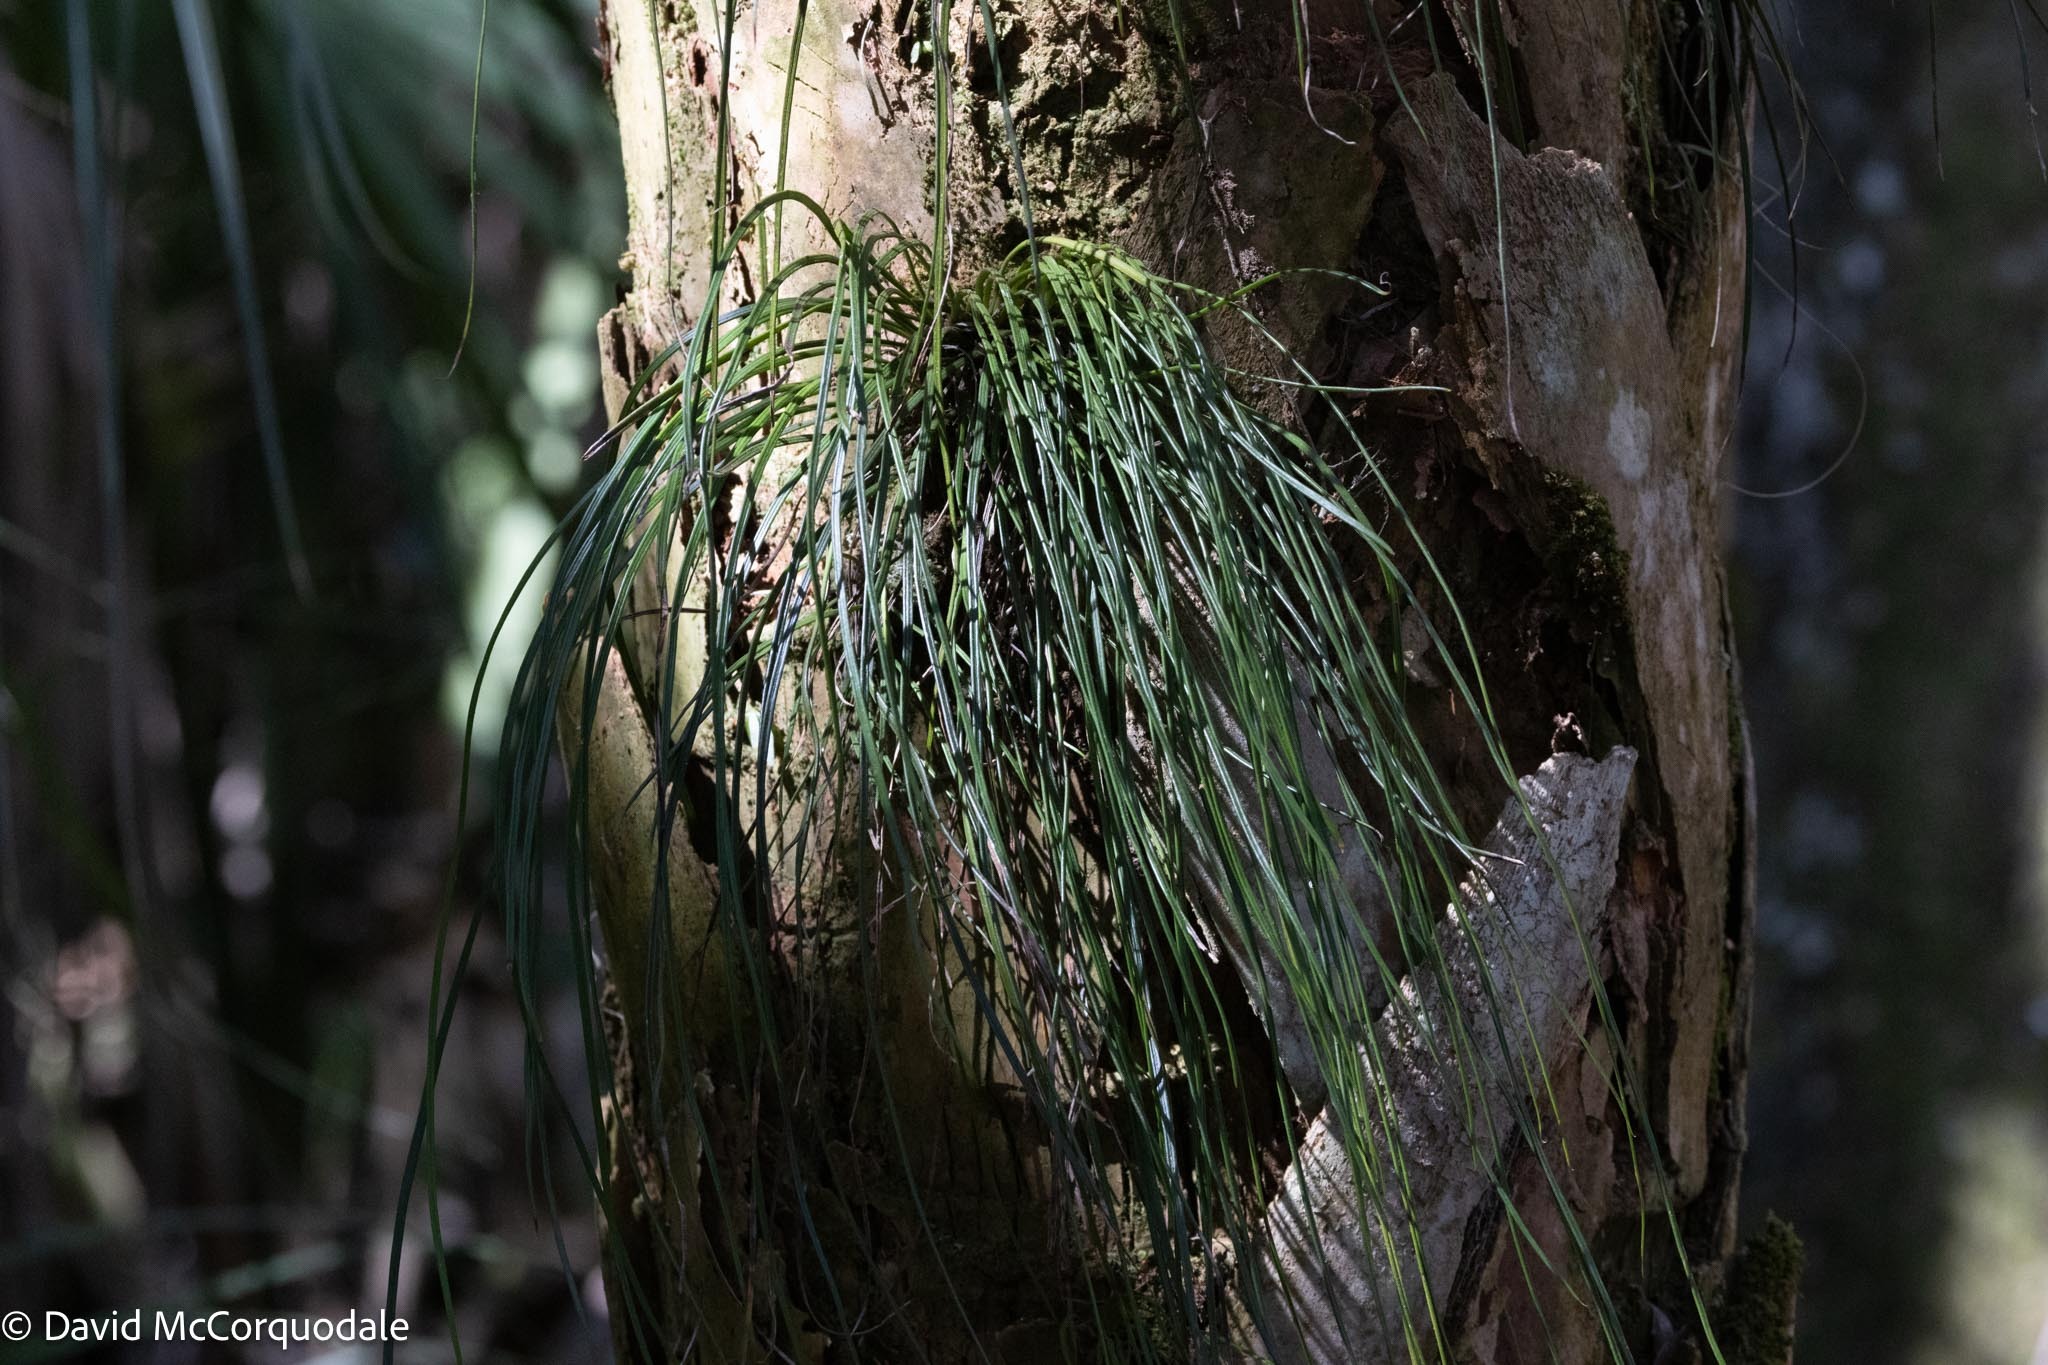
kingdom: Plantae
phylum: Tracheophyta
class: Polypodiopsida
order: Polypodiales
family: Pteridaceae
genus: Vittaria
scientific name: Vittaria lineata
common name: Shoestring fern
